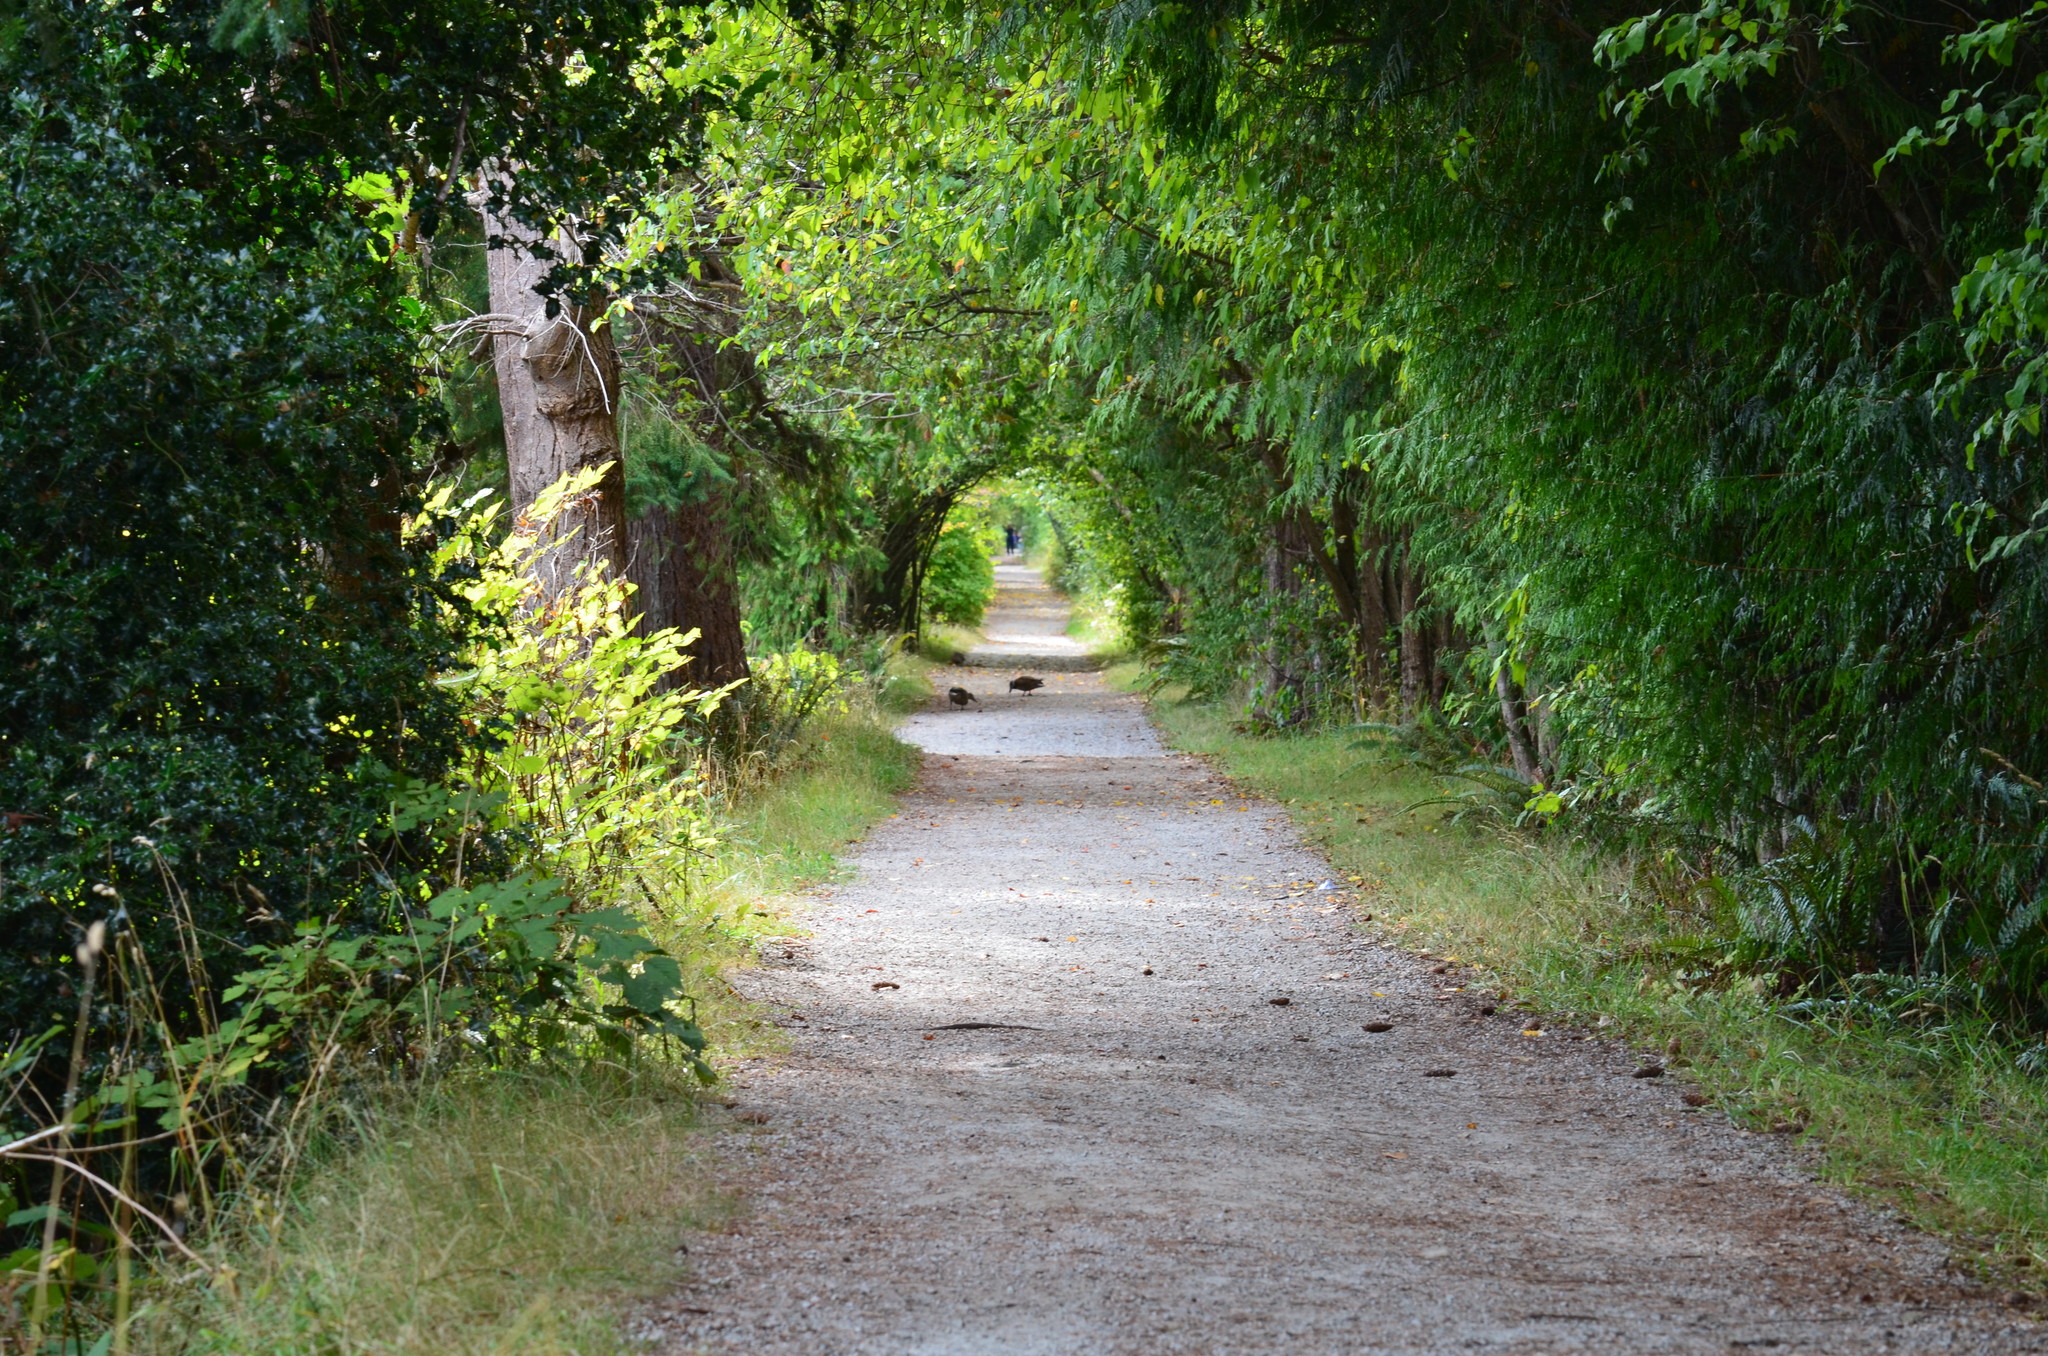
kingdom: Animalia
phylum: Chordata
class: Aves
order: Anseriformes
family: Anatidae
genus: Anas
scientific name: Anas platyrhynchos
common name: Mallard
